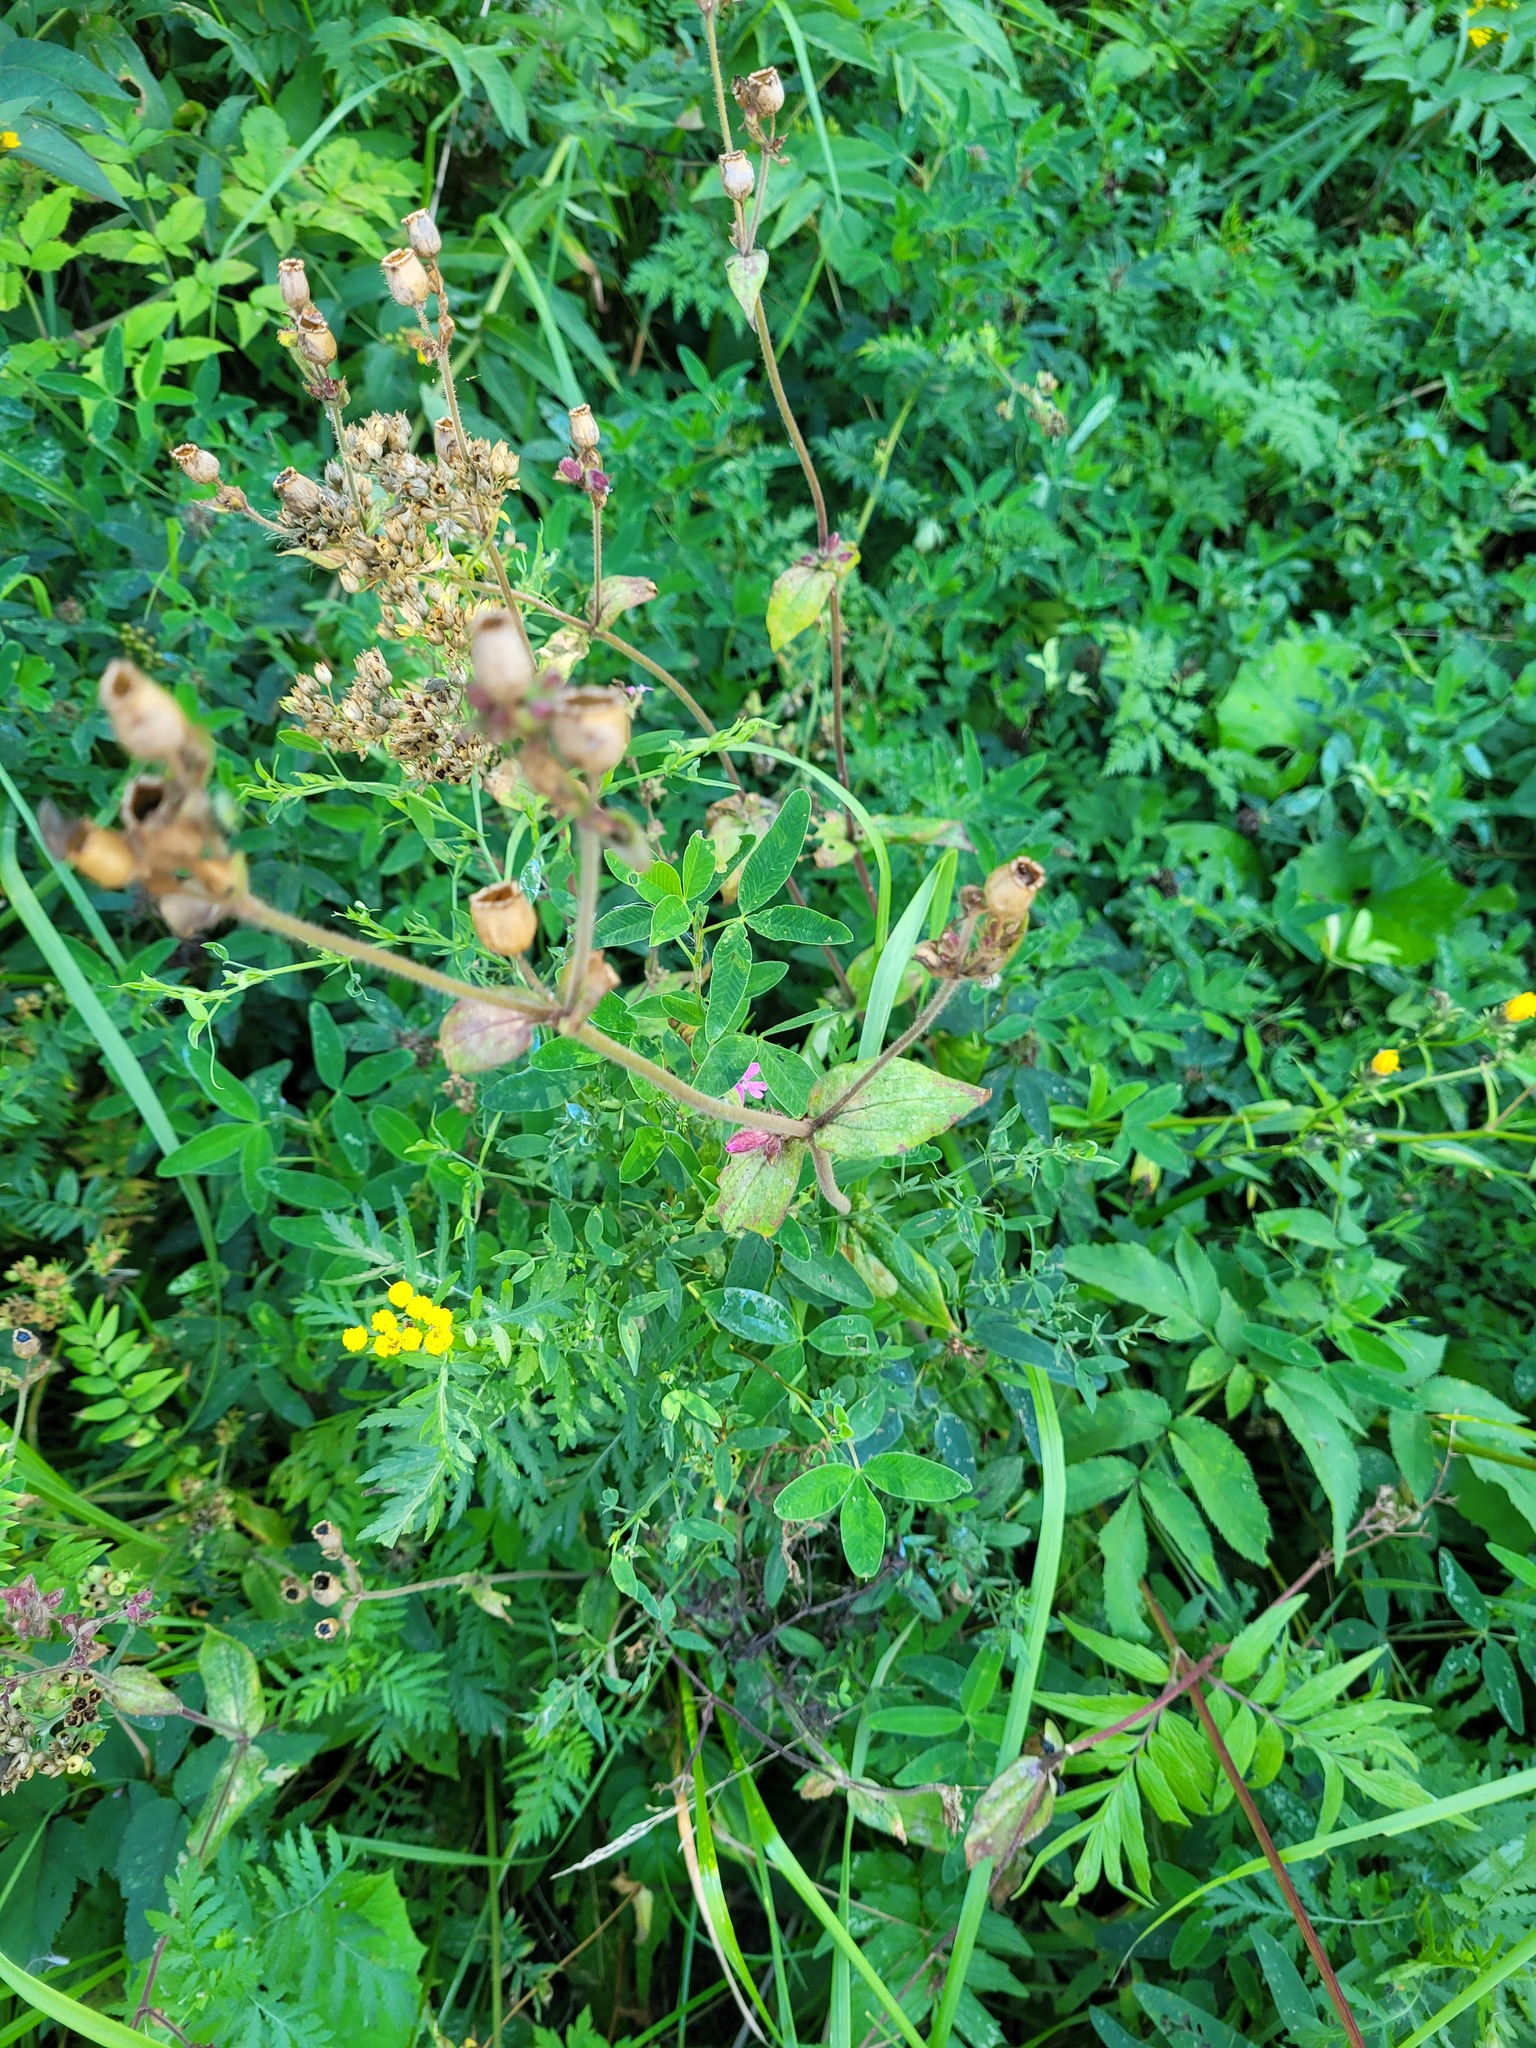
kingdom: Plantae
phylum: Tracheophyta
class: Magnoliopsida
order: Caryophyllales
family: Caryophyllaceae
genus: Silene
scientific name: Silene dioica
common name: Red campion
